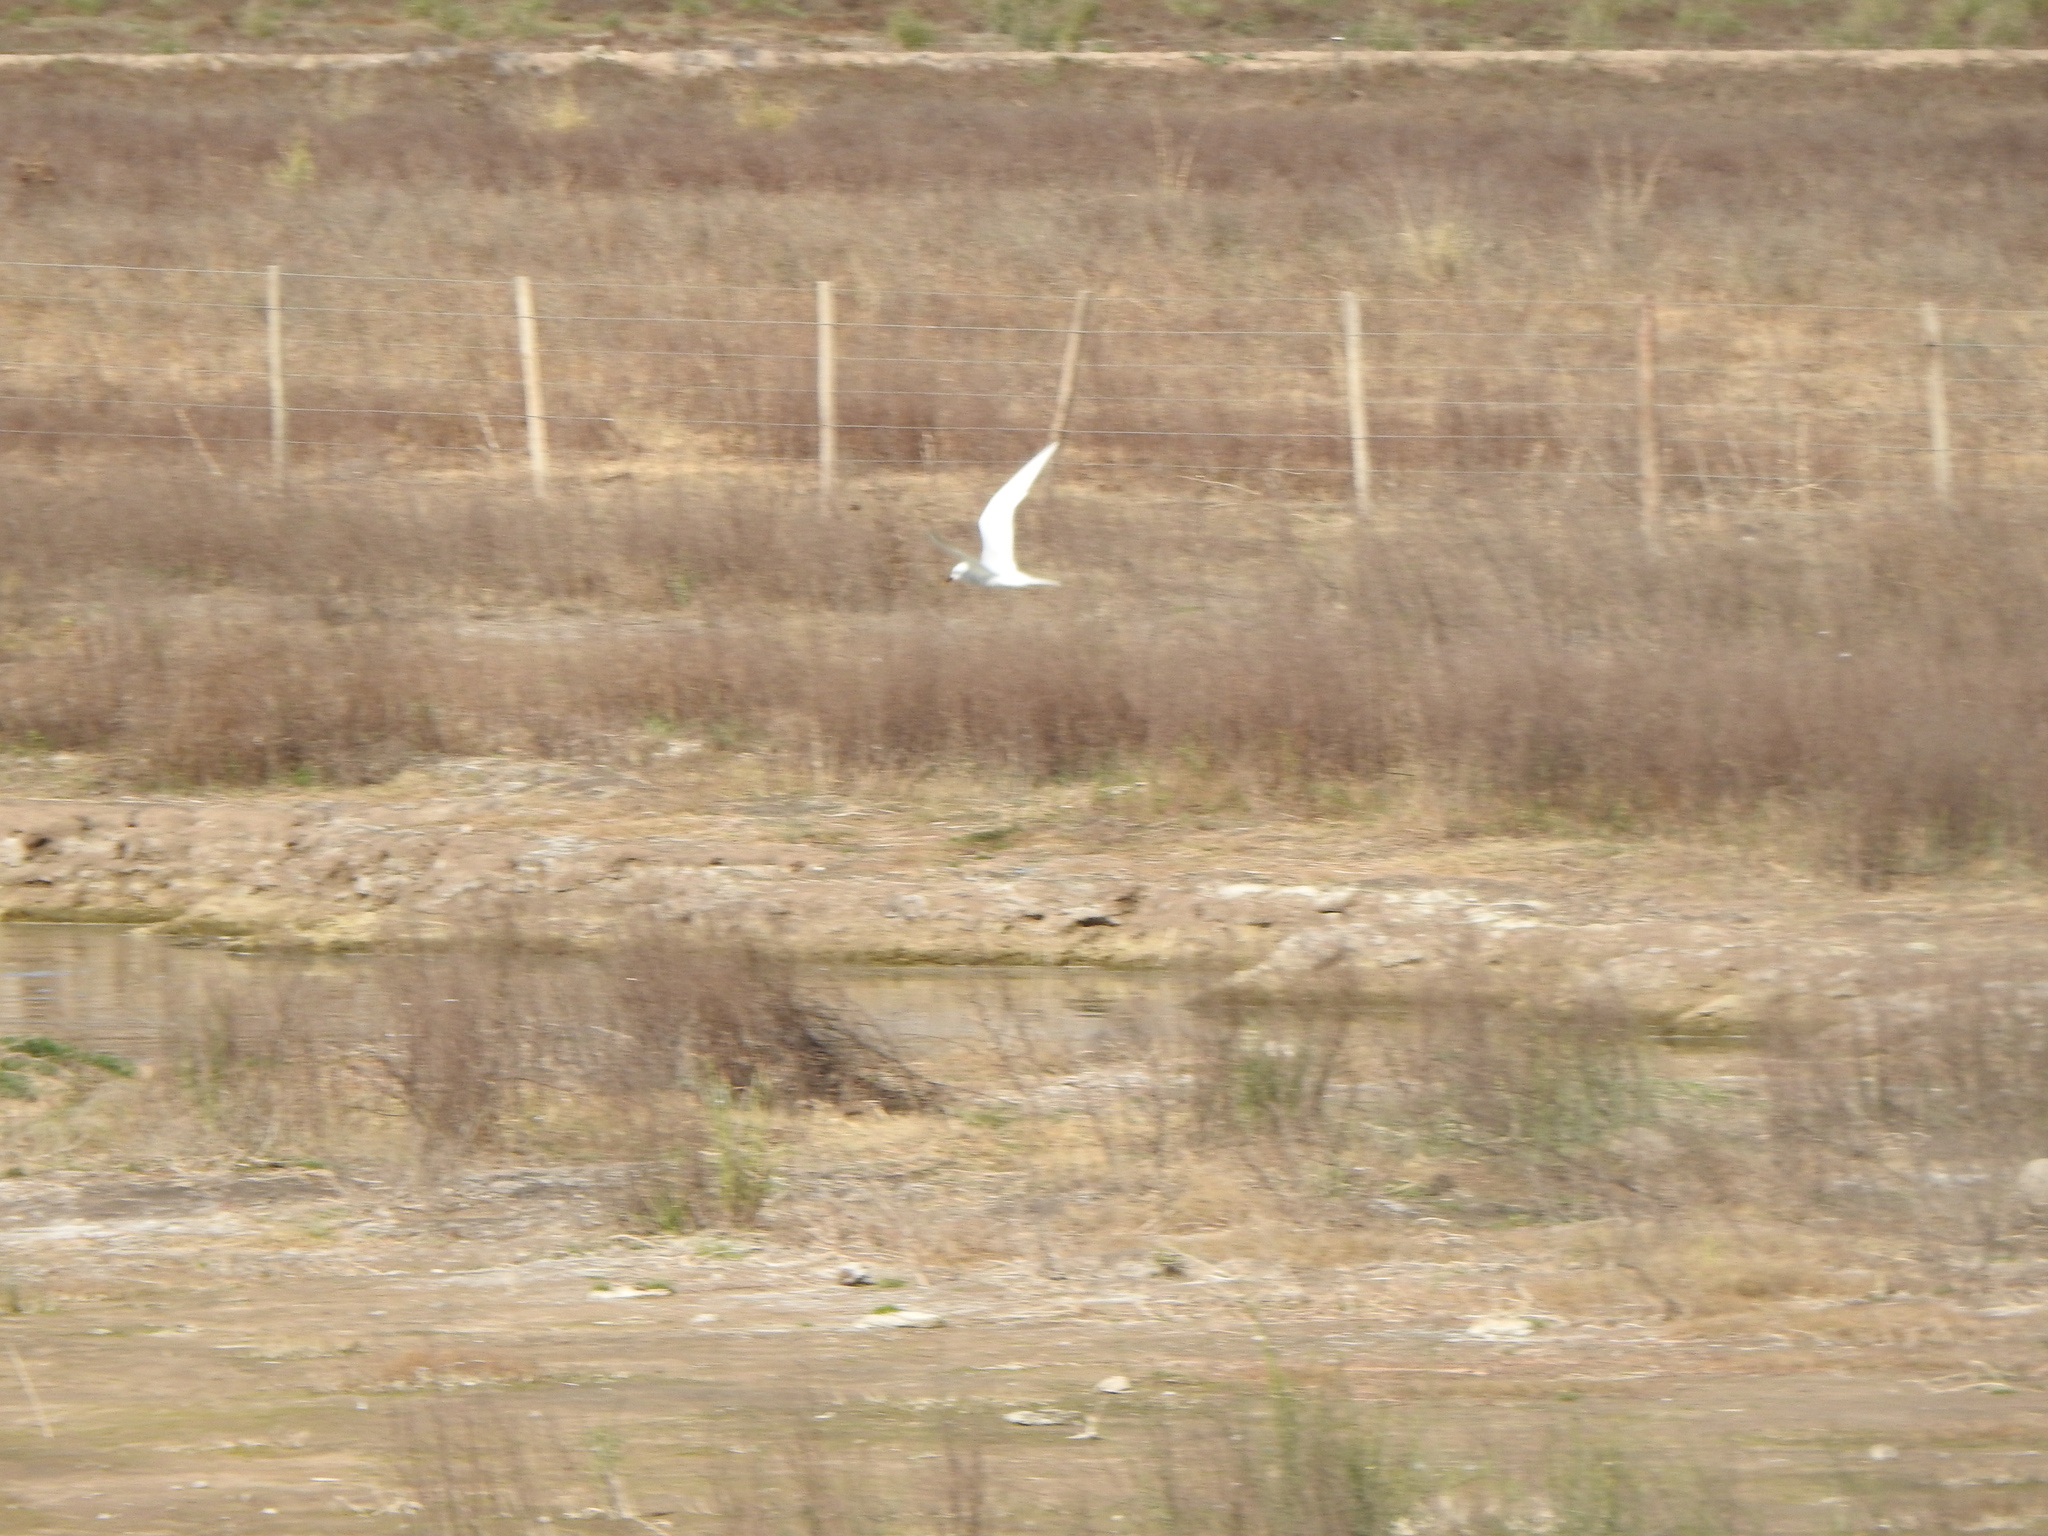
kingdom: Animalia
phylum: Chordata
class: Aves
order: Charadriiformes
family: Laridae
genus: Sterna
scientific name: Sterna trudeaui
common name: Snowy-crowned tern
